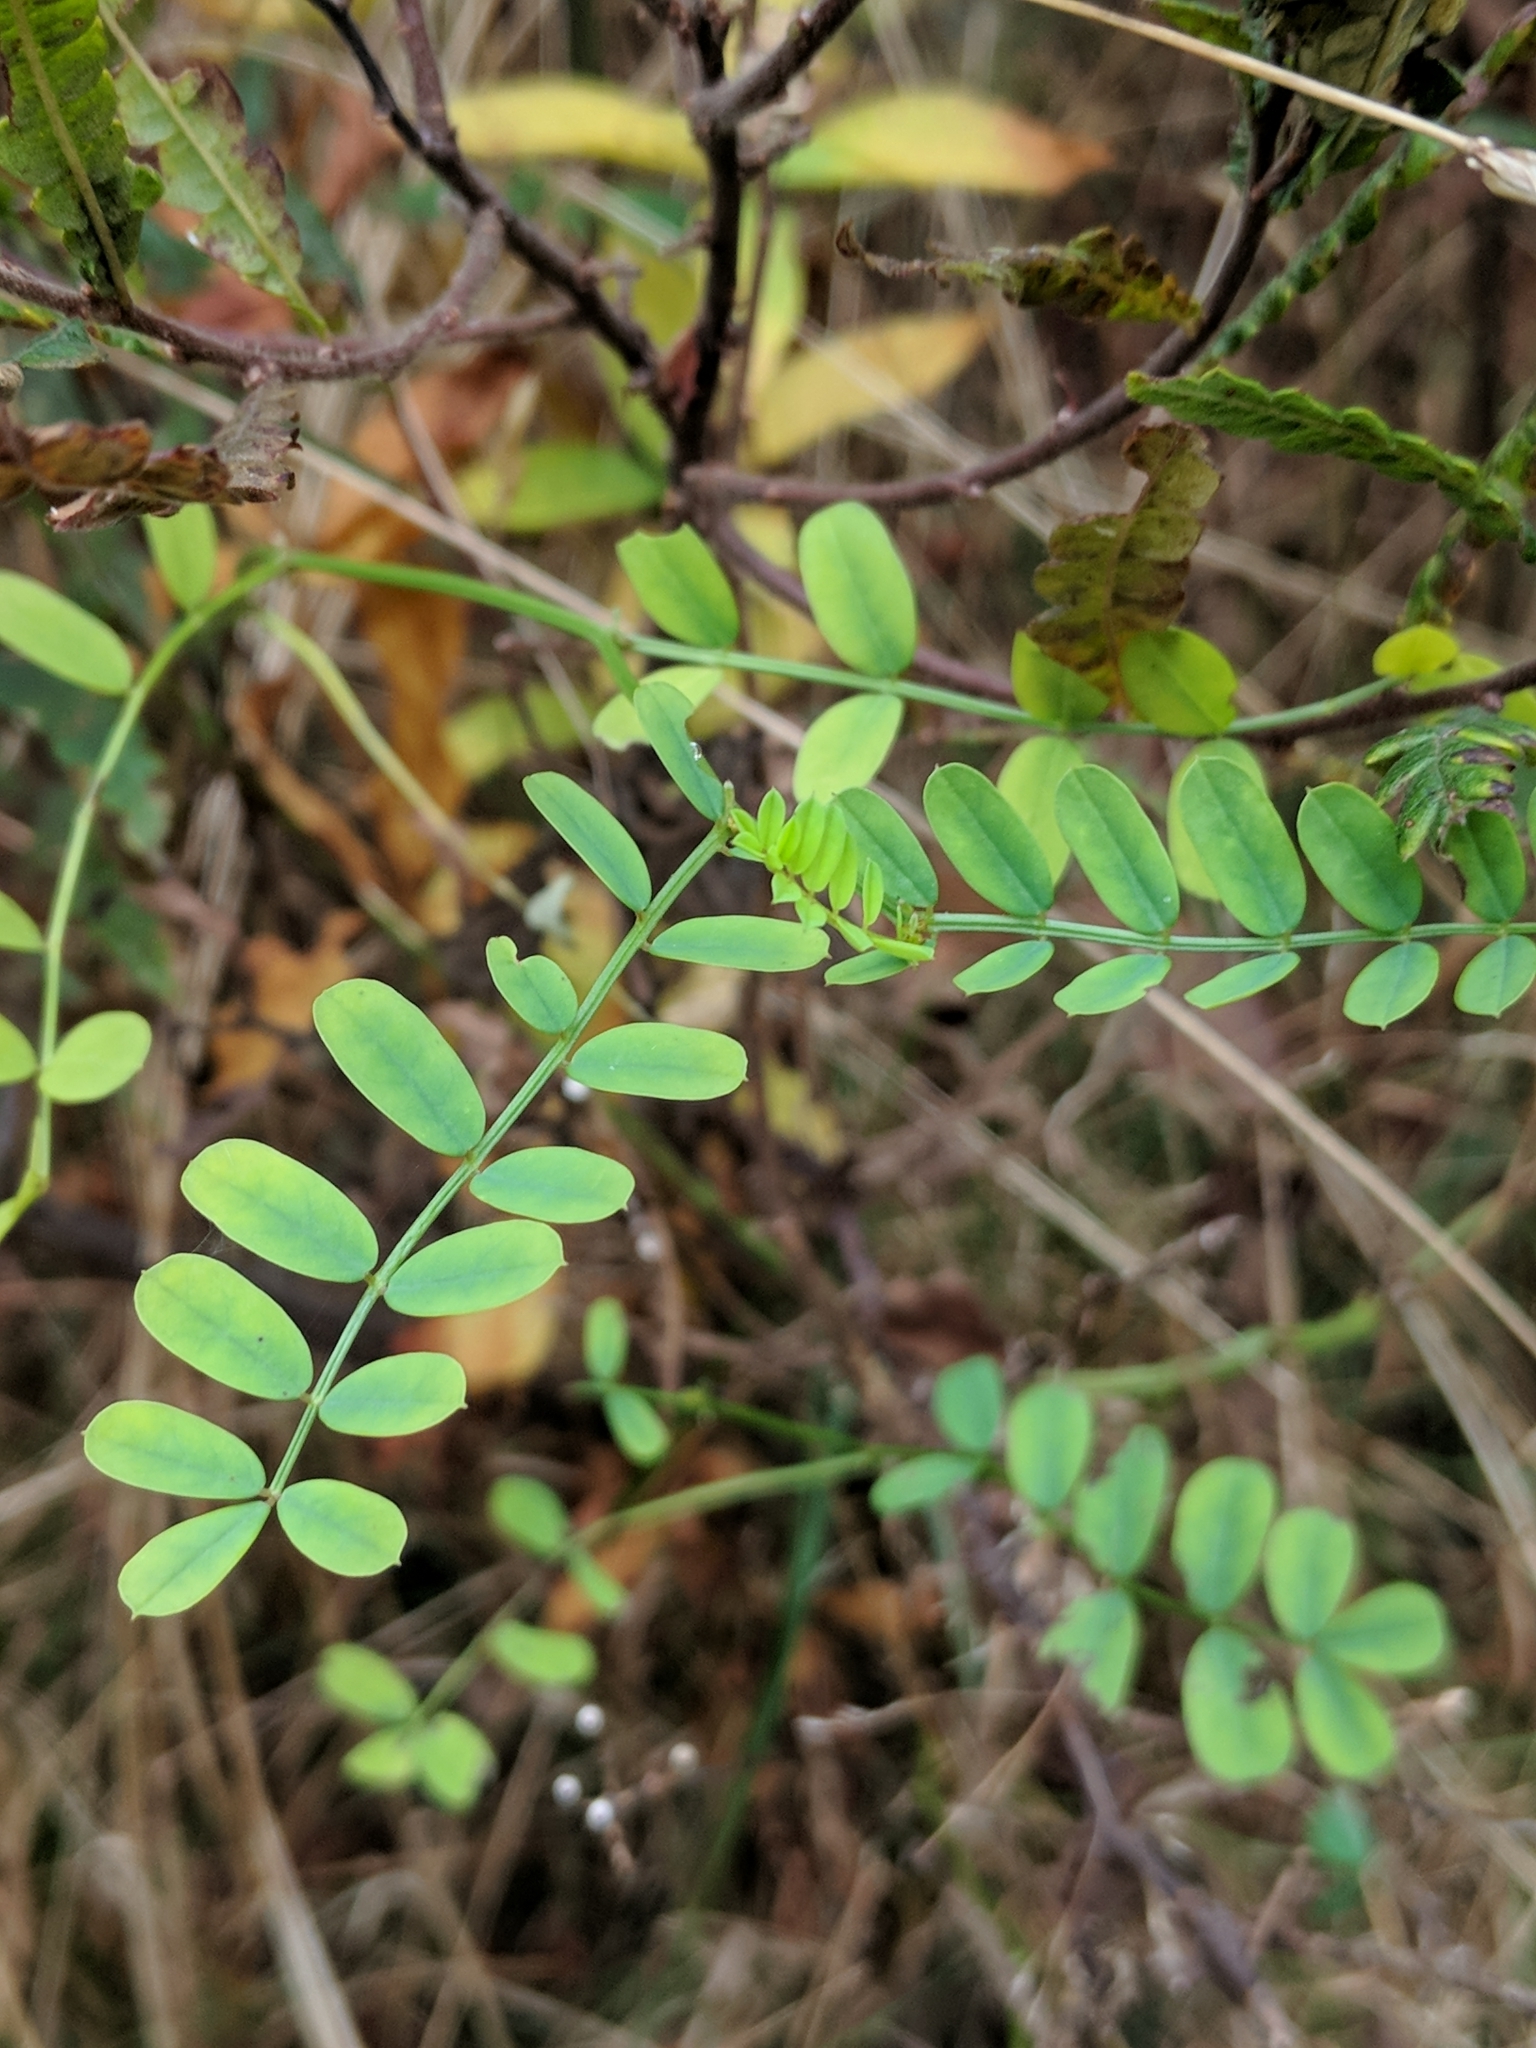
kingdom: Plantae
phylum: Tracheophyta
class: Magnoliopsida
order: Fabales
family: Fabaceae
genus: Coronilla
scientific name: Coronilla varia
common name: Crownvetch
